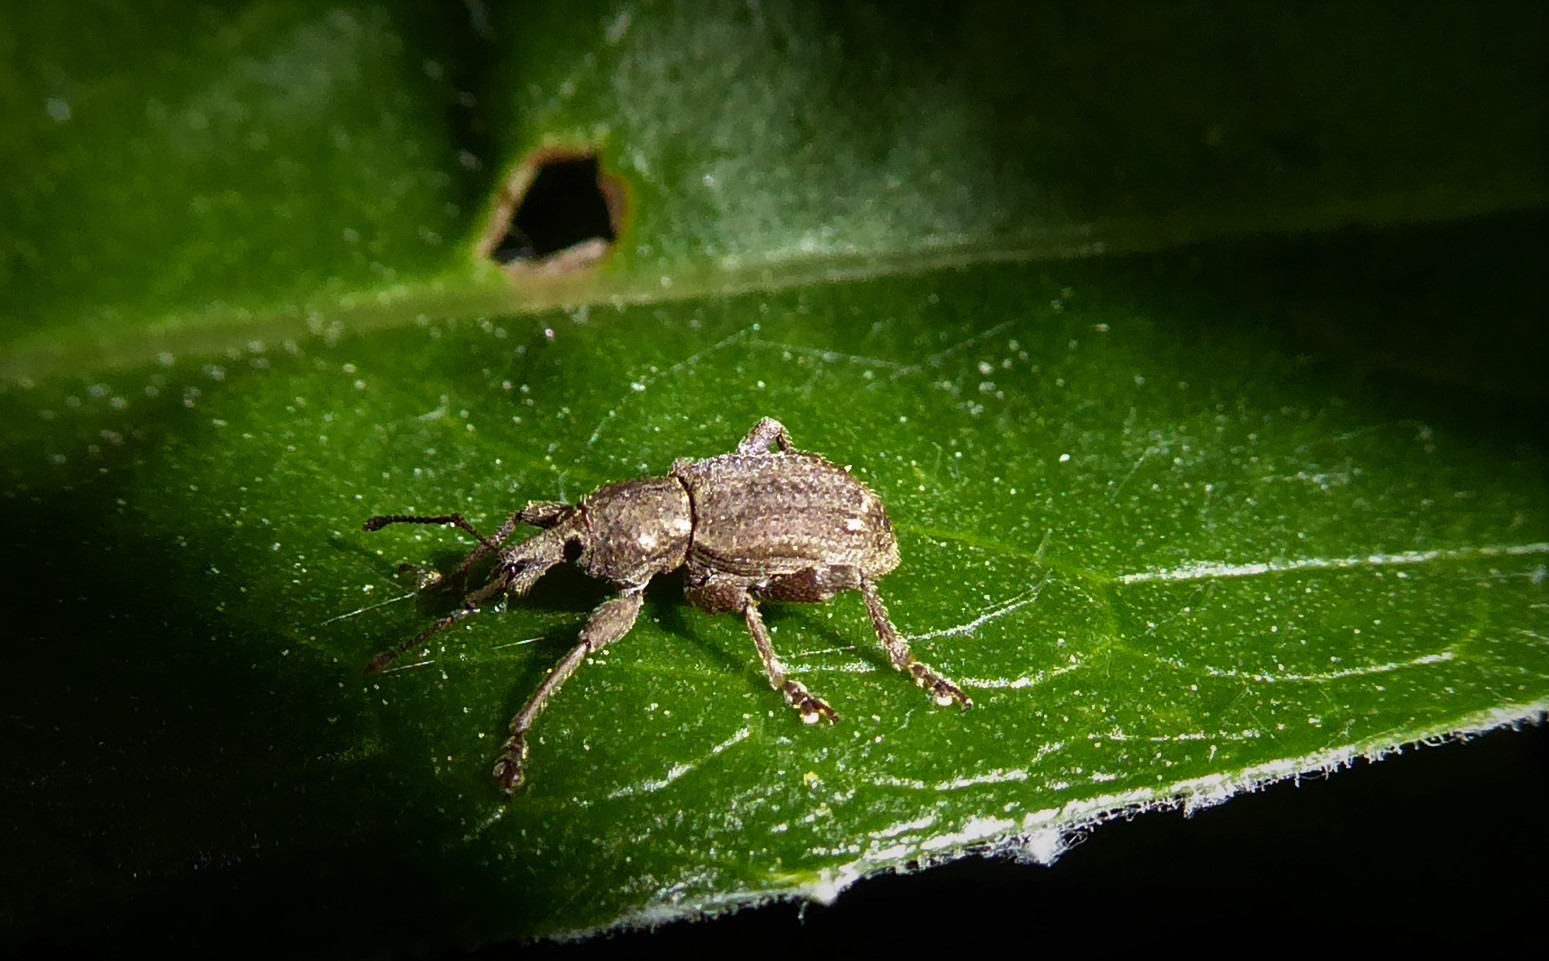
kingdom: Animalia
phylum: Arthropoda
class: Insecta
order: Coleoptera
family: Curculionidae
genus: Chalepistes
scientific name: Chalepistes rubidus
